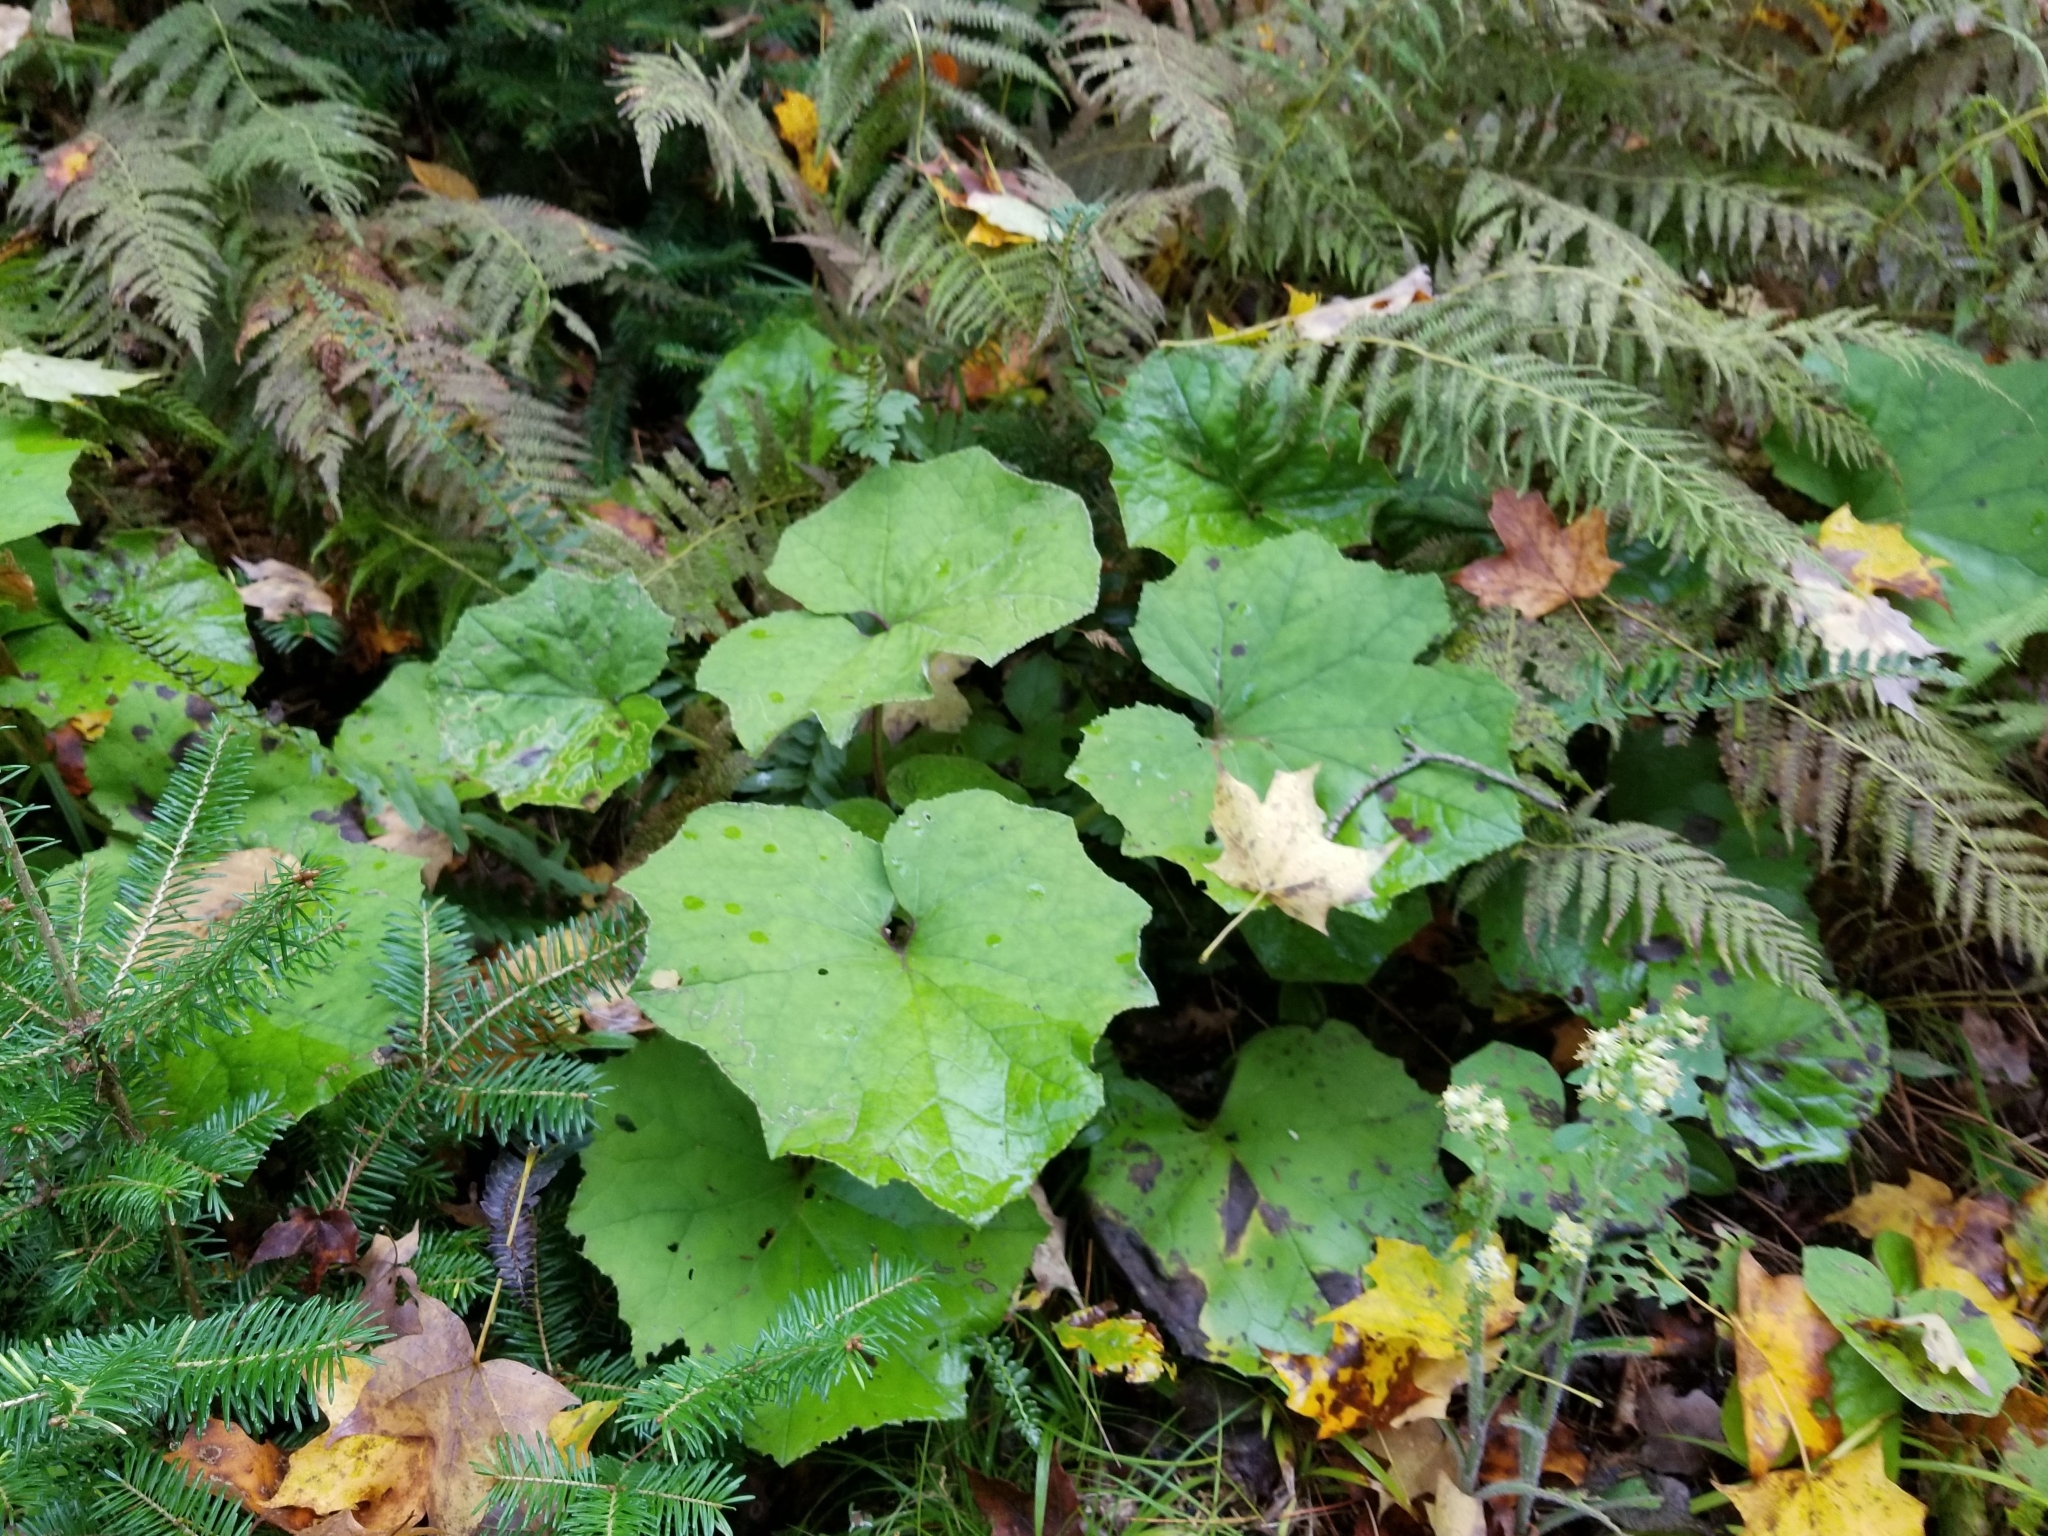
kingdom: Plantae
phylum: Tracheophyta
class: Magnoliopsida
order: Asterales
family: Asteraceae
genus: Tussilago
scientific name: Tussilago farfara
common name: Coltsfoot
